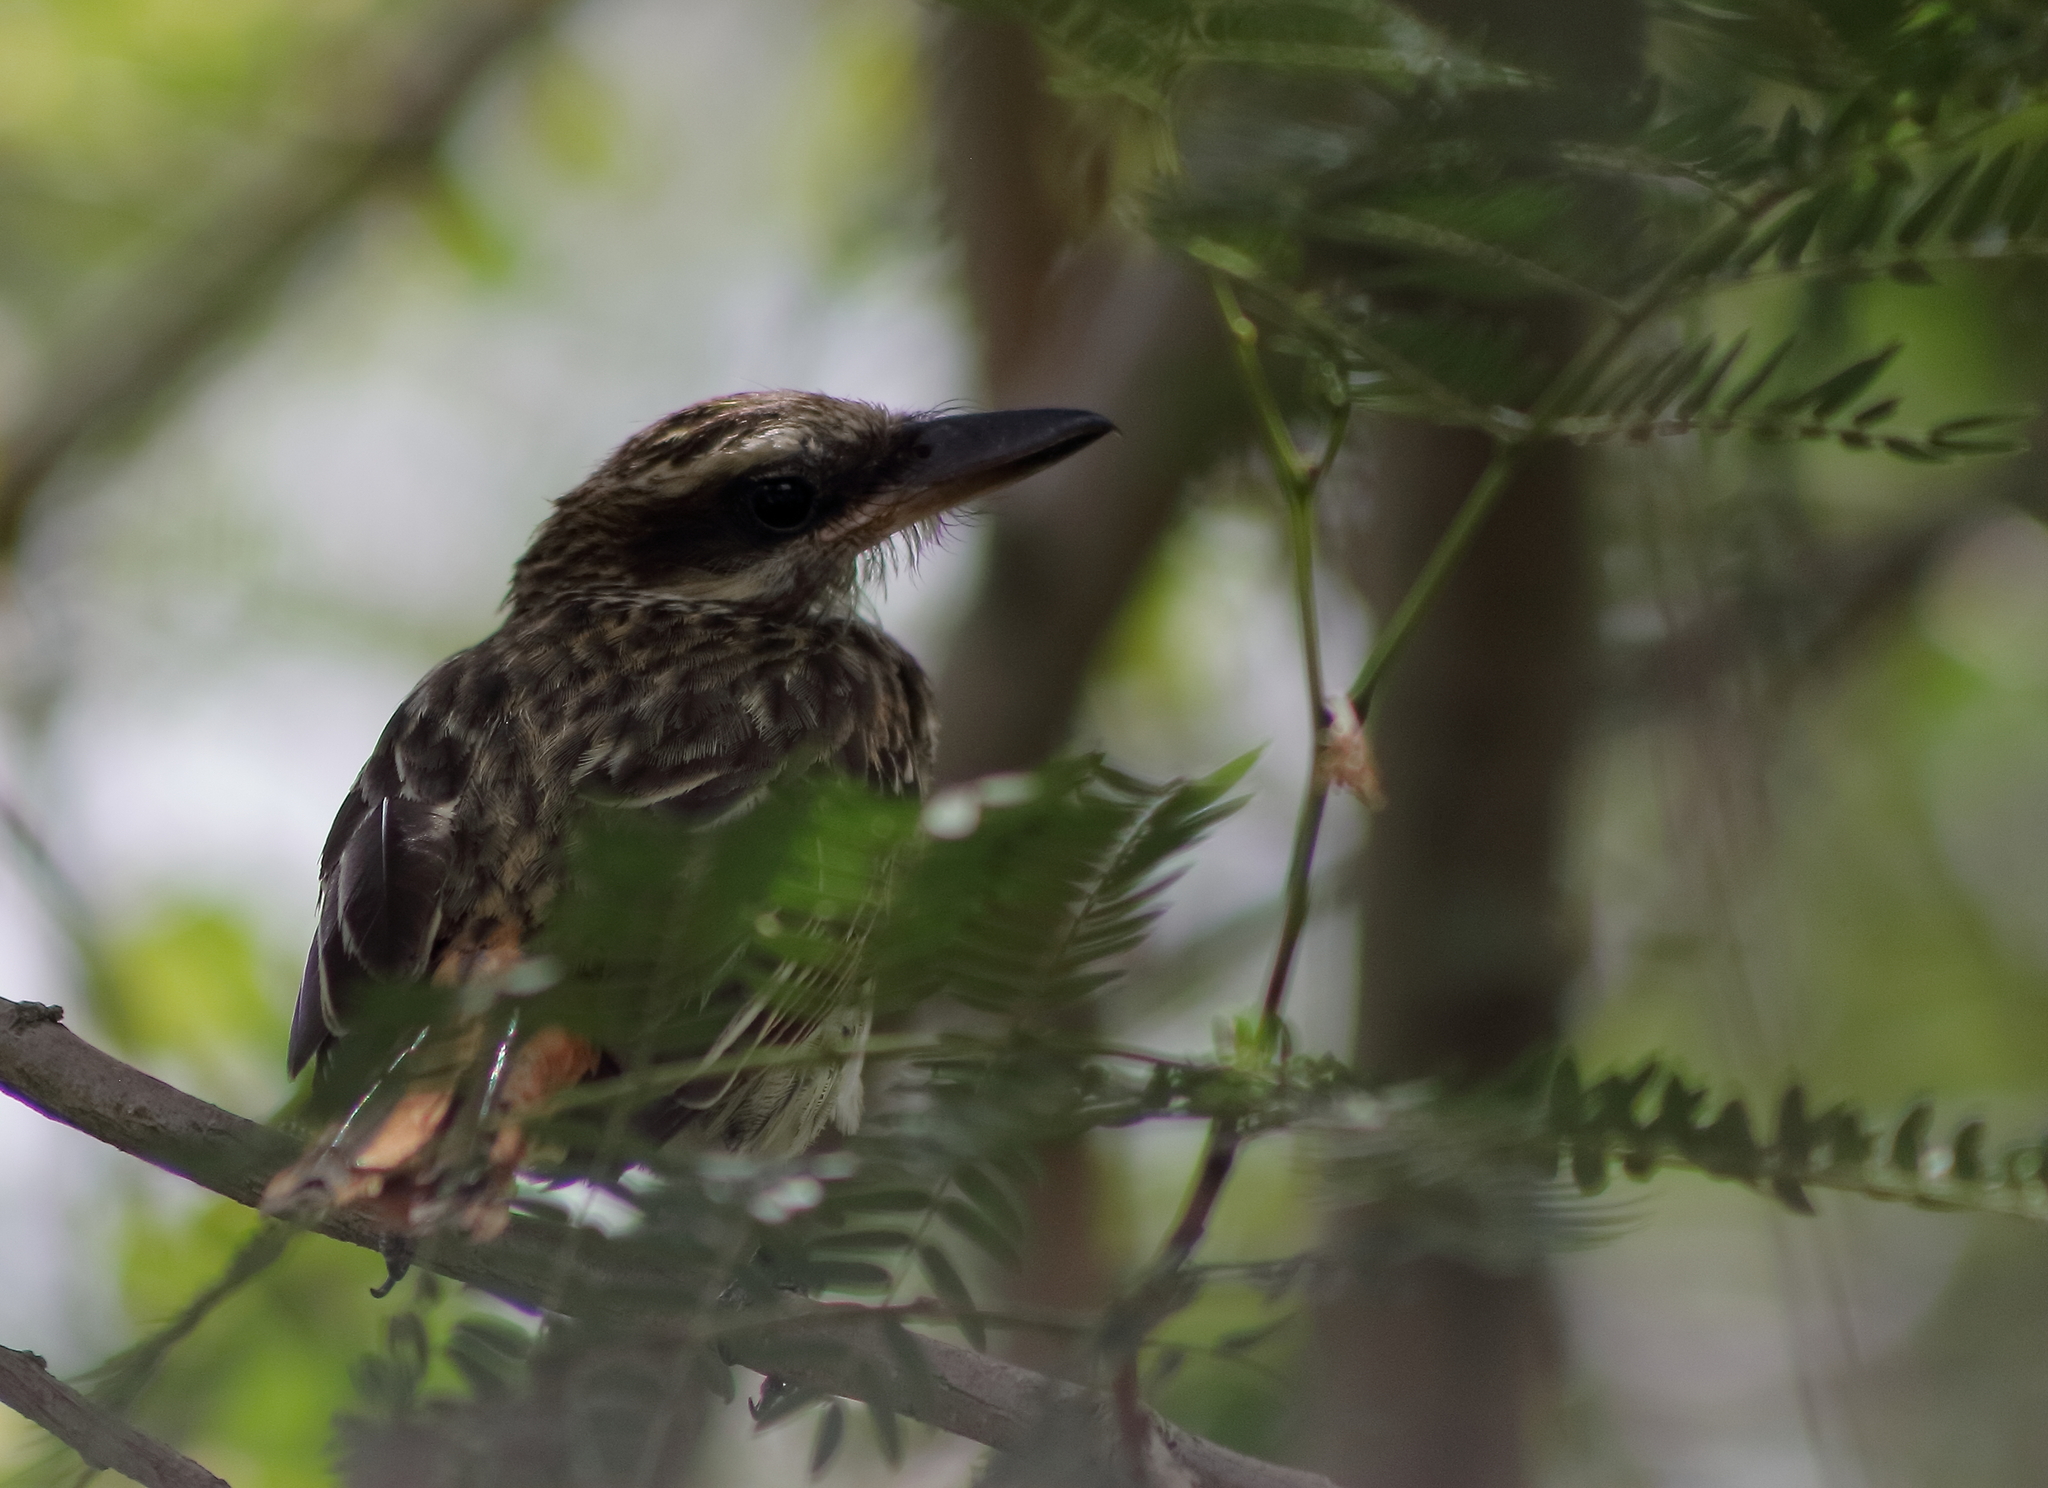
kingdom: Animalia
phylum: Chordata
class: Aves
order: Passeriformes
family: Tyrannidae
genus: Myiodynastes
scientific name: Myiodynastes maculatus
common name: Streaked flycatcher
